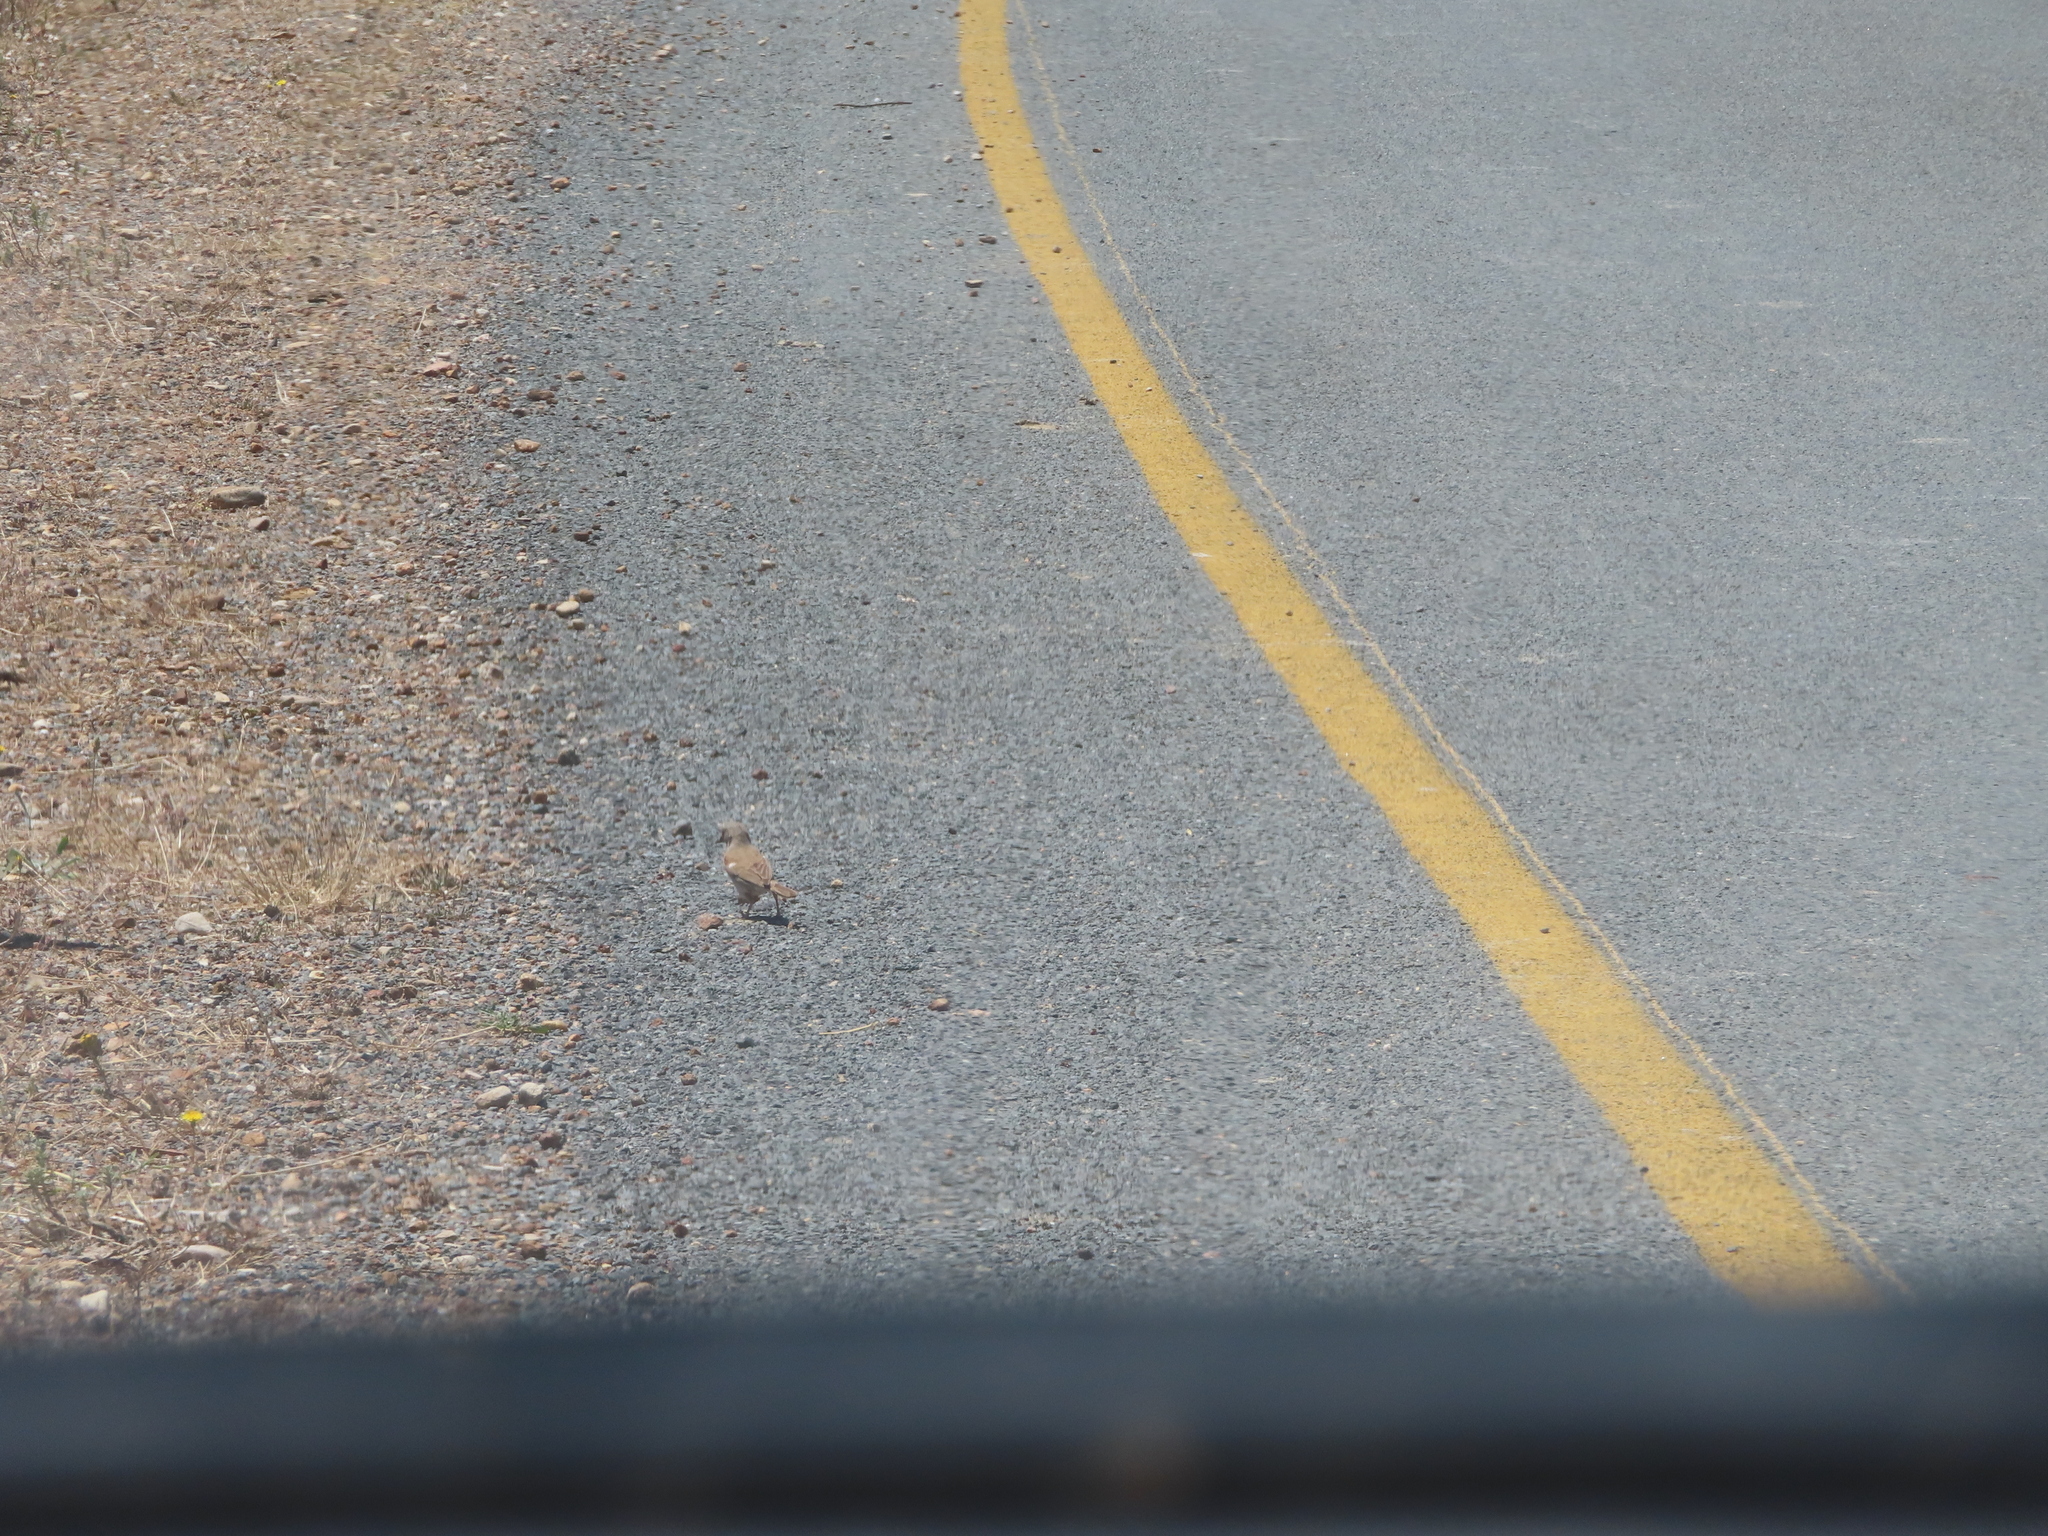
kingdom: Animalia
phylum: Chordata
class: Aves
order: Passeriformes
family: Passeridae
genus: Passer
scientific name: Passer diffusus
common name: Southern grey-headed sparrow
